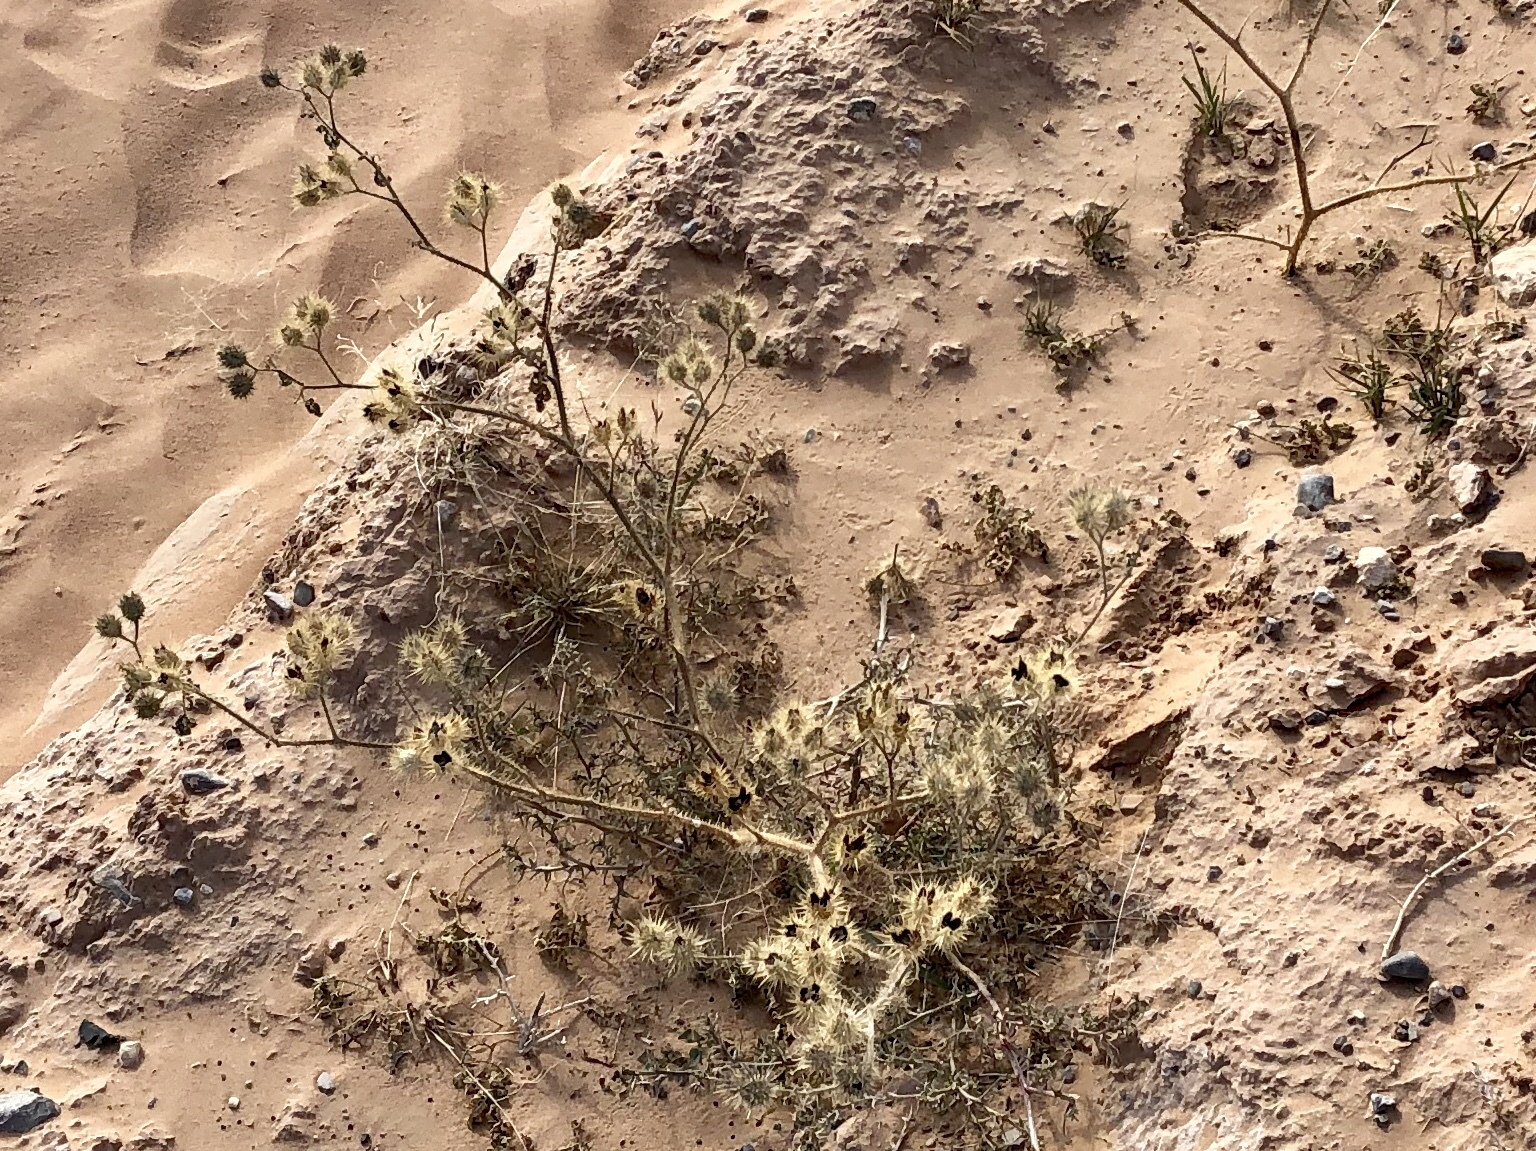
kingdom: Plantae
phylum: Tracheophyta
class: Magnoliopsida
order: Solanales
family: Solanaceae
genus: Solanum
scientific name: Solanum angustifolium
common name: Buffalobur nightshade
